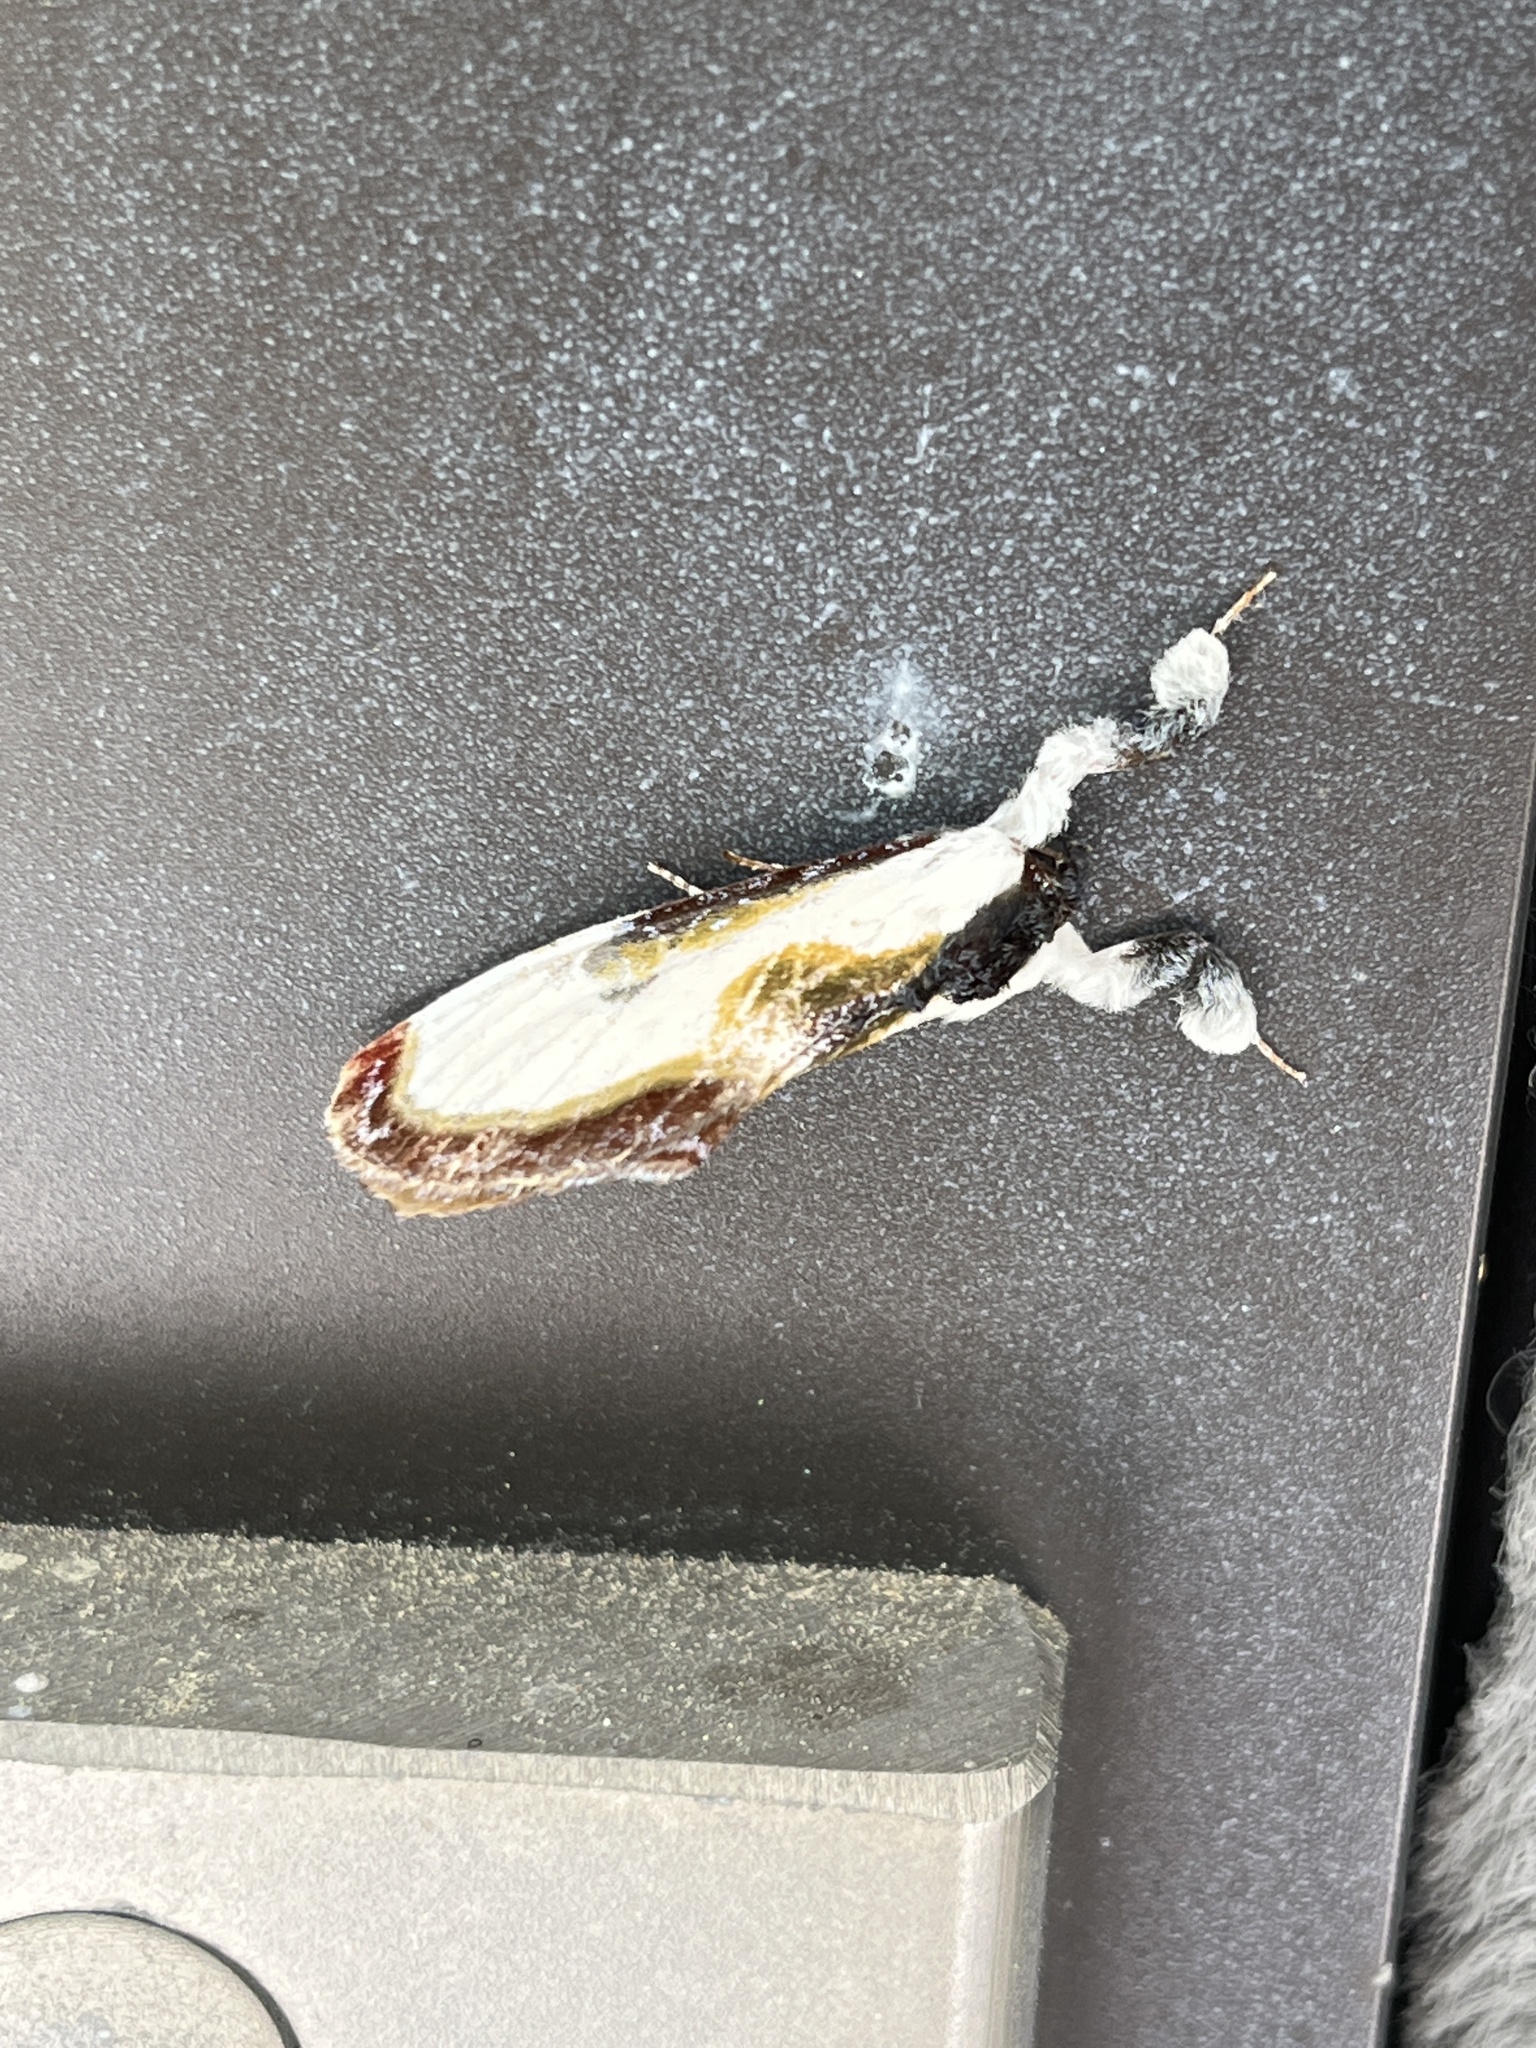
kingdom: Animalia
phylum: Arthropoda
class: Insecta
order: Lepidoptera
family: Noctuidae
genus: Eudryas
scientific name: Eudryas grata
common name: Beautiful wood-nymph
